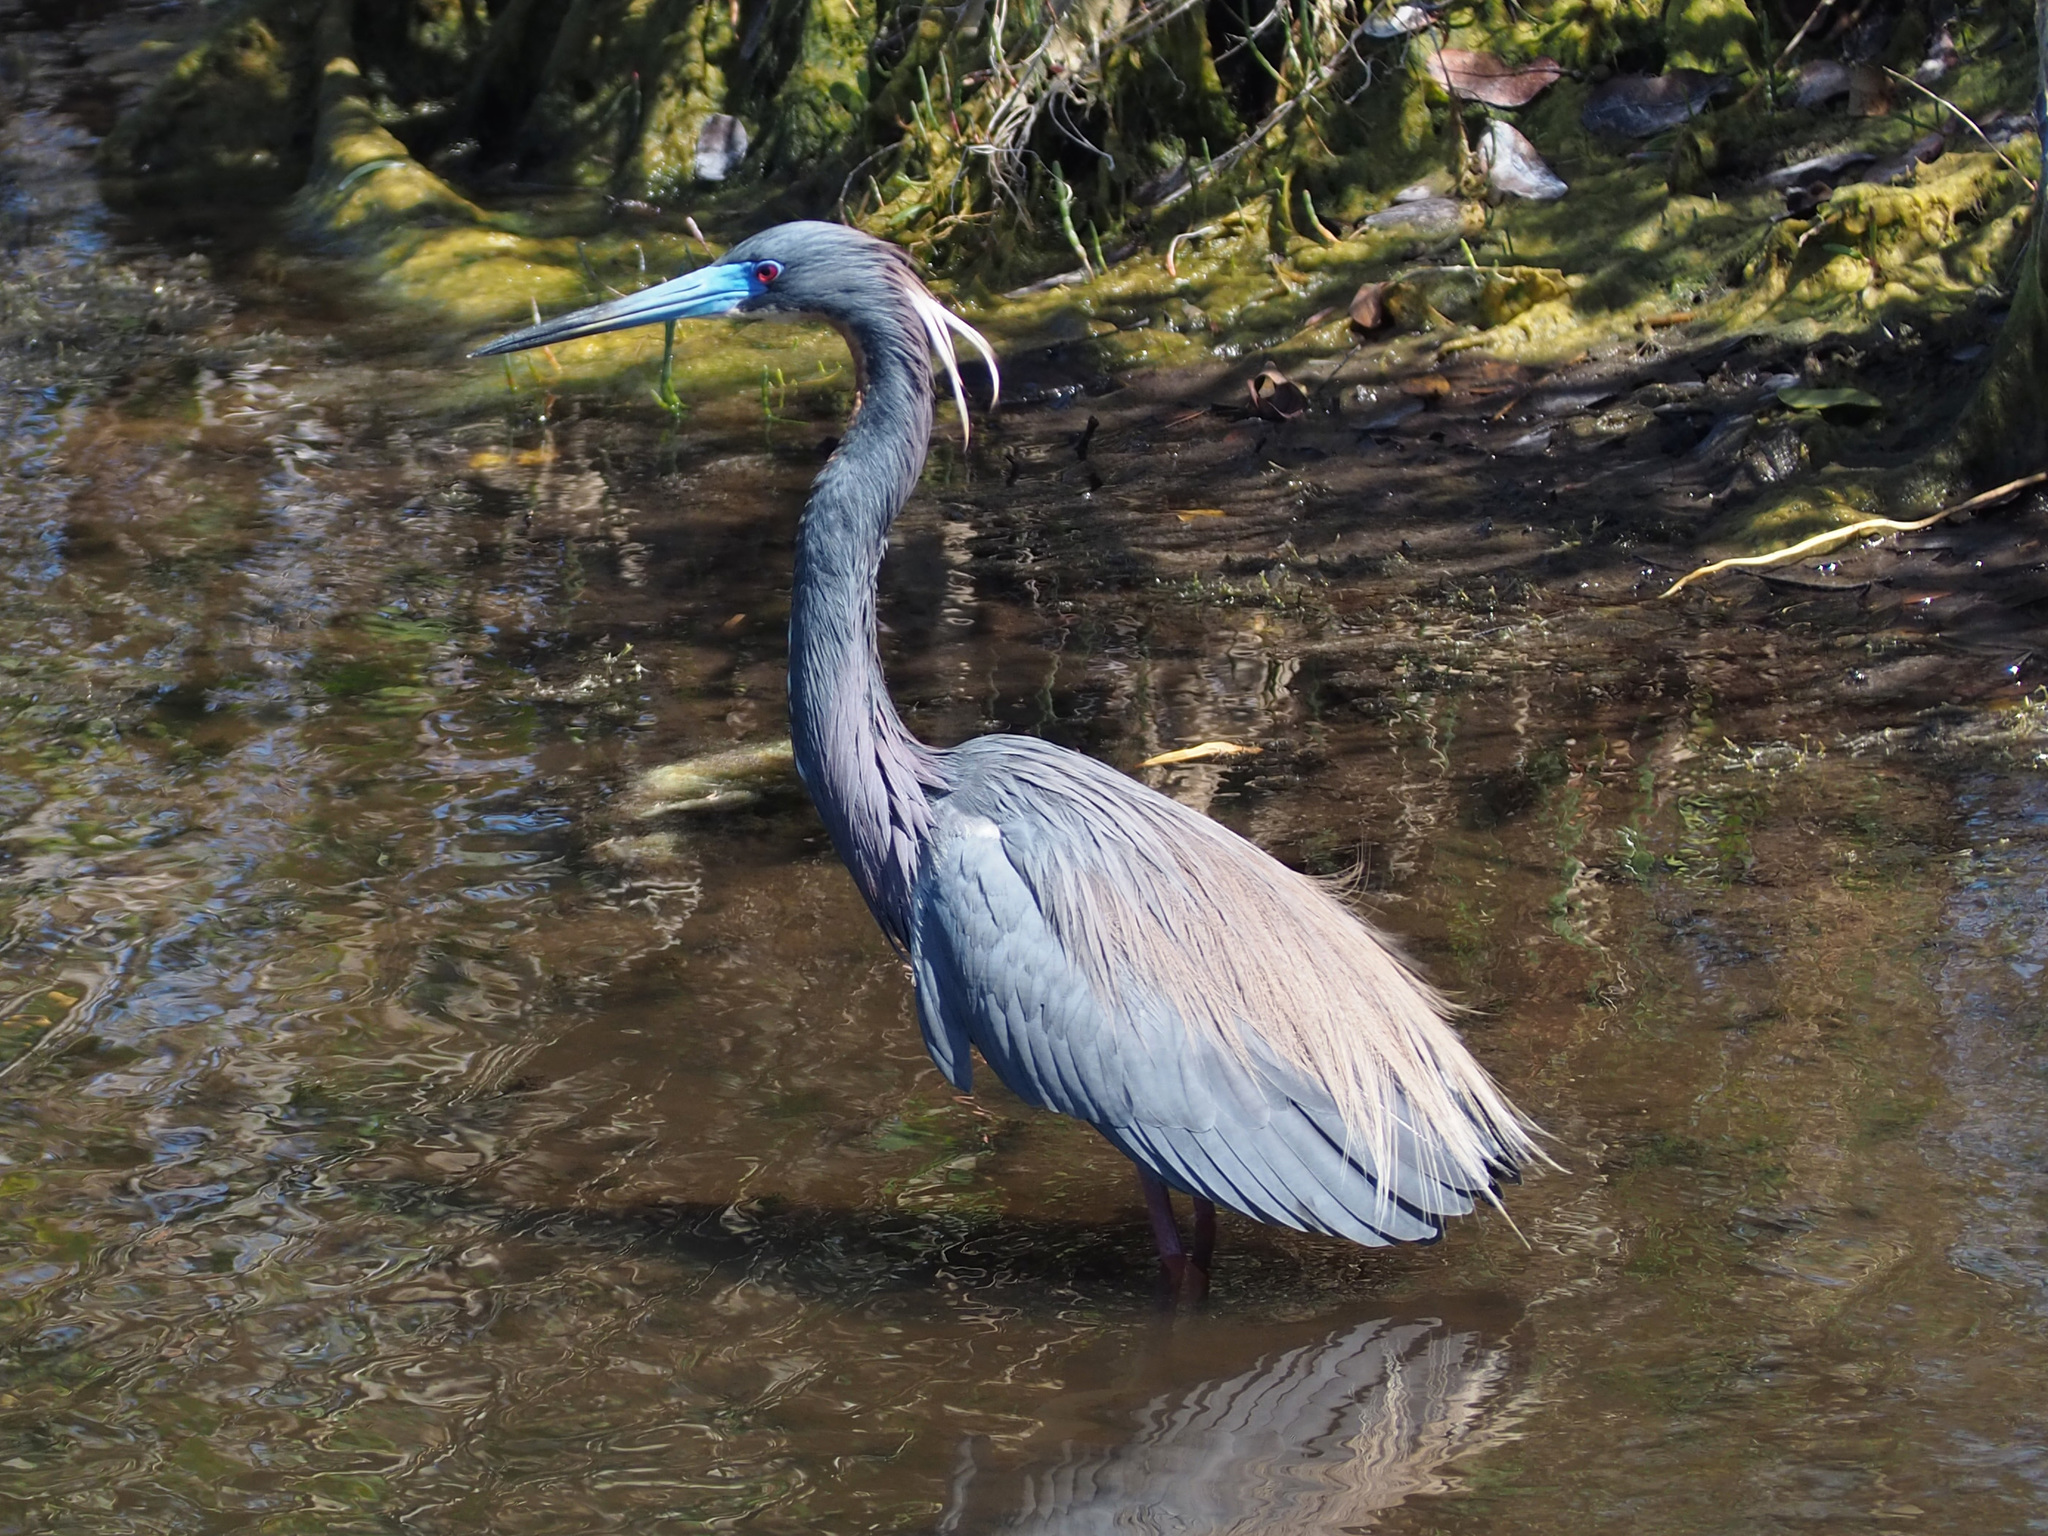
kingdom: Animalia
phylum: Chordata
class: Aves
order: Pelecaniformes
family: Ardeidae
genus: Egretta
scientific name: Egretta tricolor
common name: Tricolored heron
